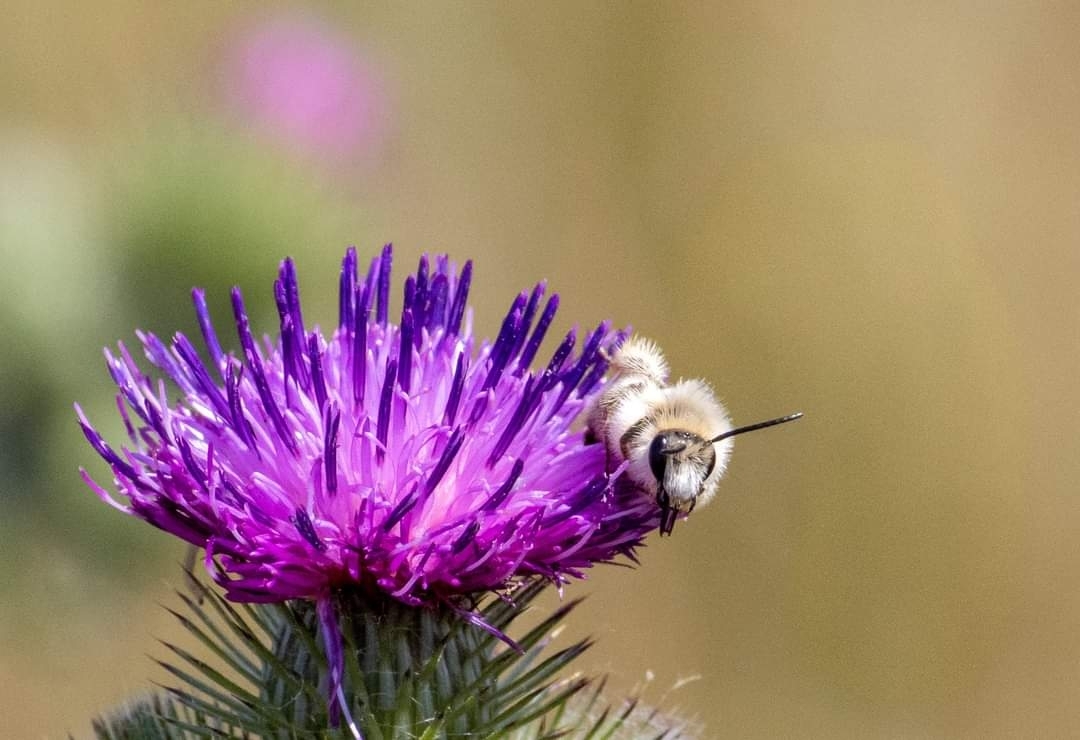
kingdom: Animalia
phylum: Arthropoda
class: Insecta
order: Hymenoptera
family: Melittidae
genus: Dasypoda
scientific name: Dasypoda hirtipes
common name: Pantaloon bee
